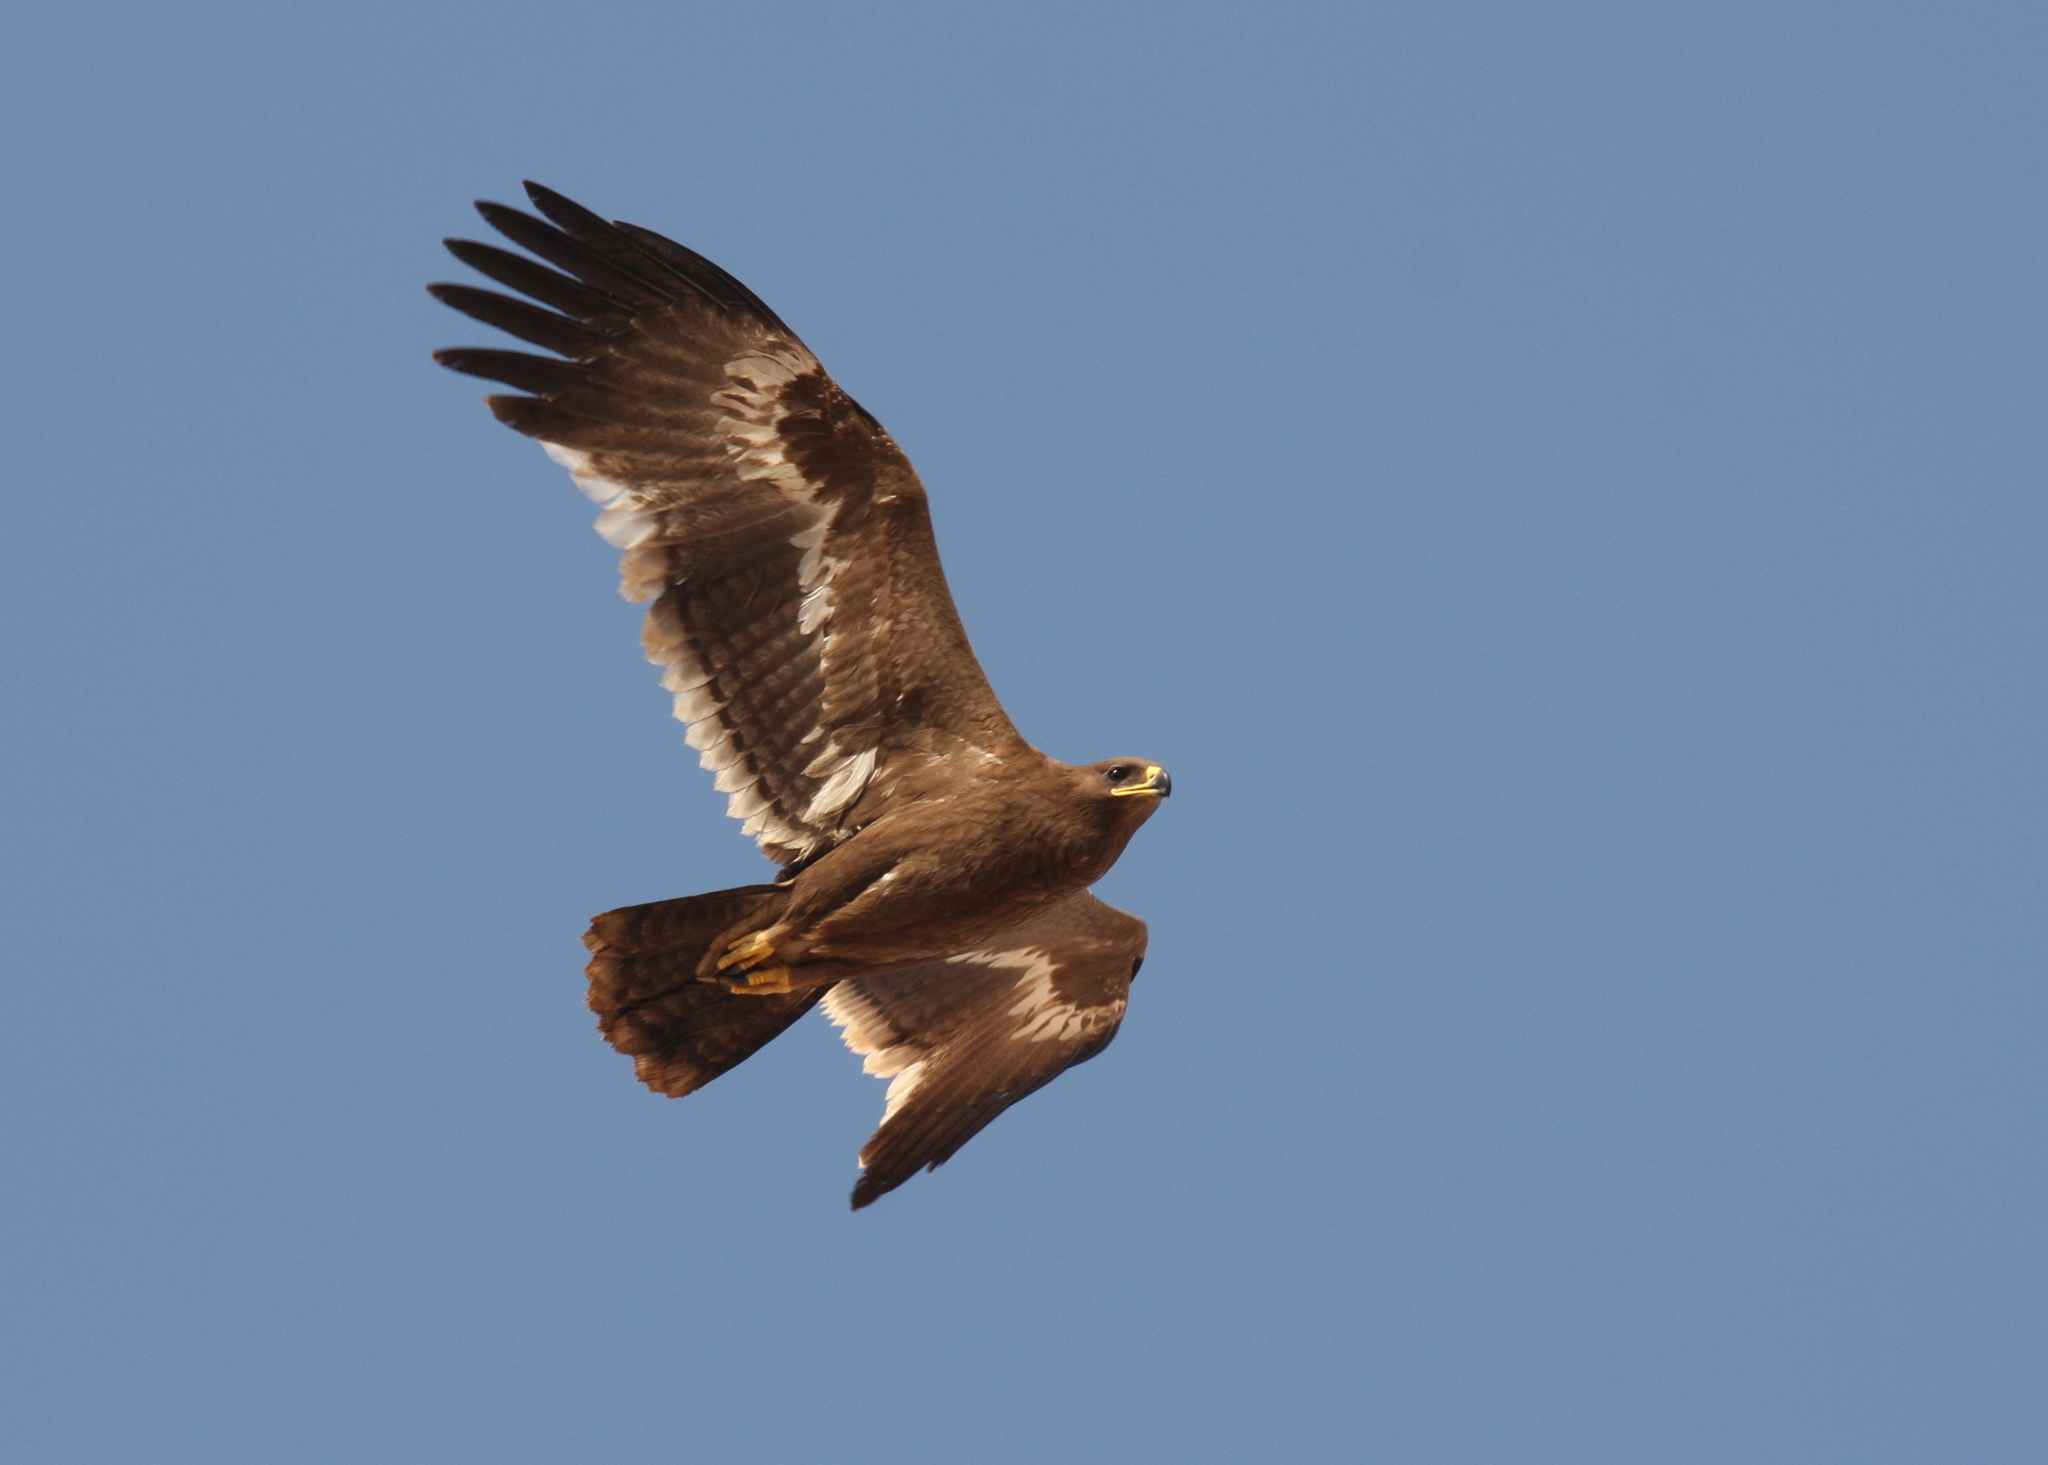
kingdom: Animalia
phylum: Chordata
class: Aves
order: Accipitriformes
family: Accipitridae
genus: Aquila
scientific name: Aquila nipalensis
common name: Steppe eagle
